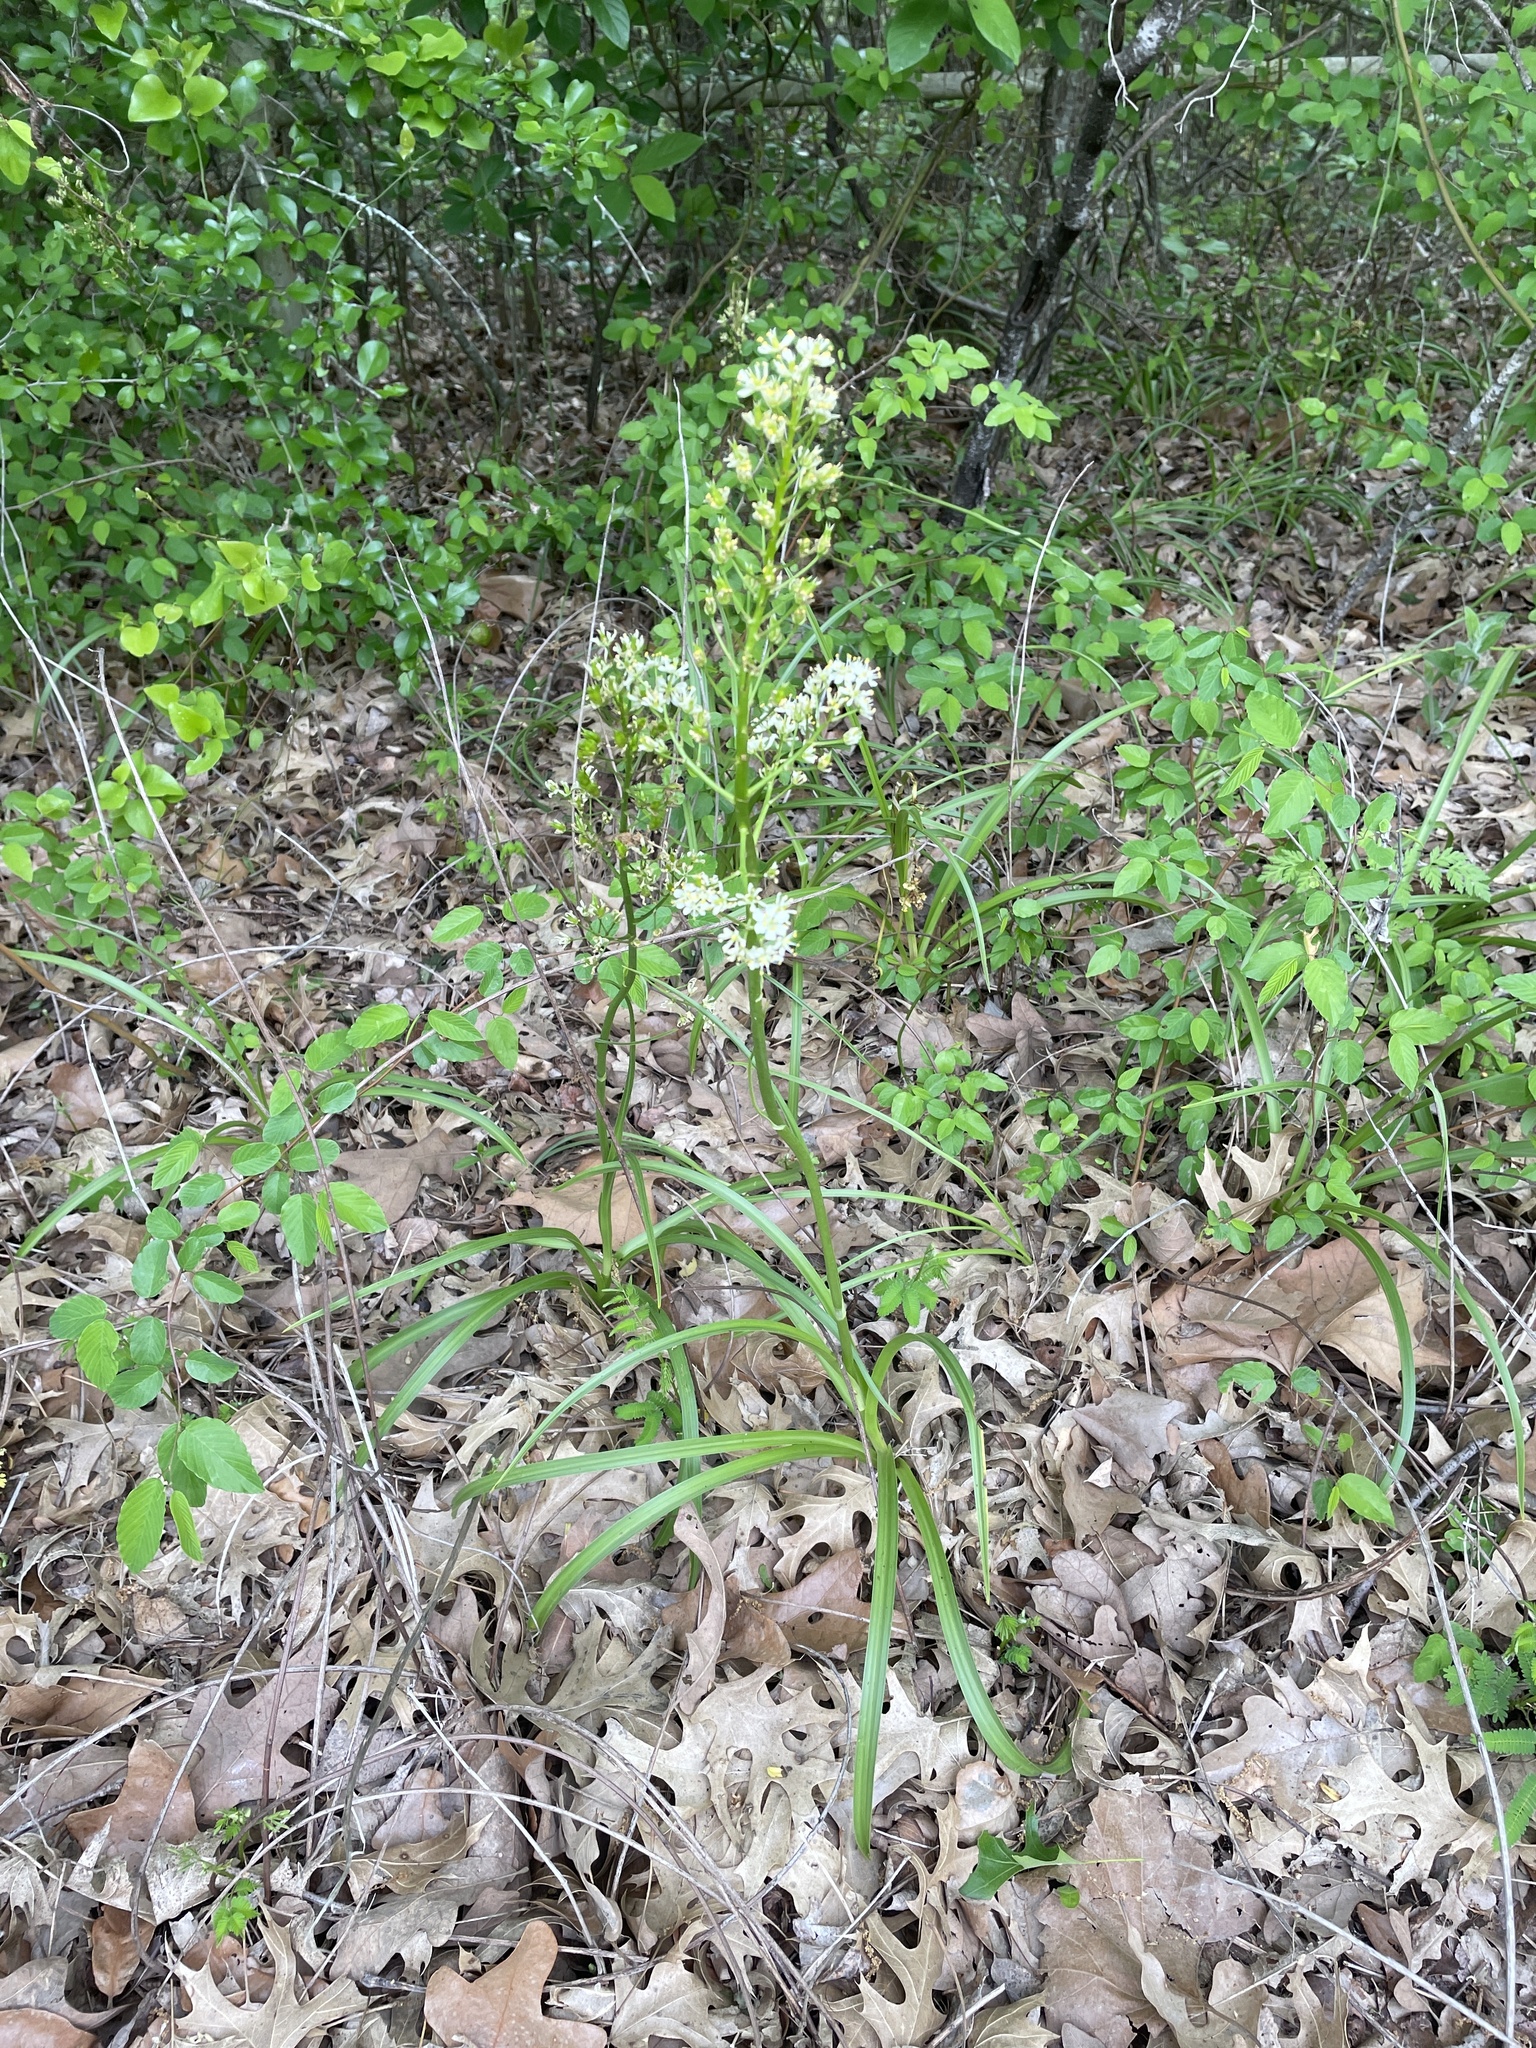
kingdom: Plantae
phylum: Tracheophyta
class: Liliopsida
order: Liliales
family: Melanthiaceae
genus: Toxicoscordion
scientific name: Toxicoscordion nuttallii
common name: Poison sego
